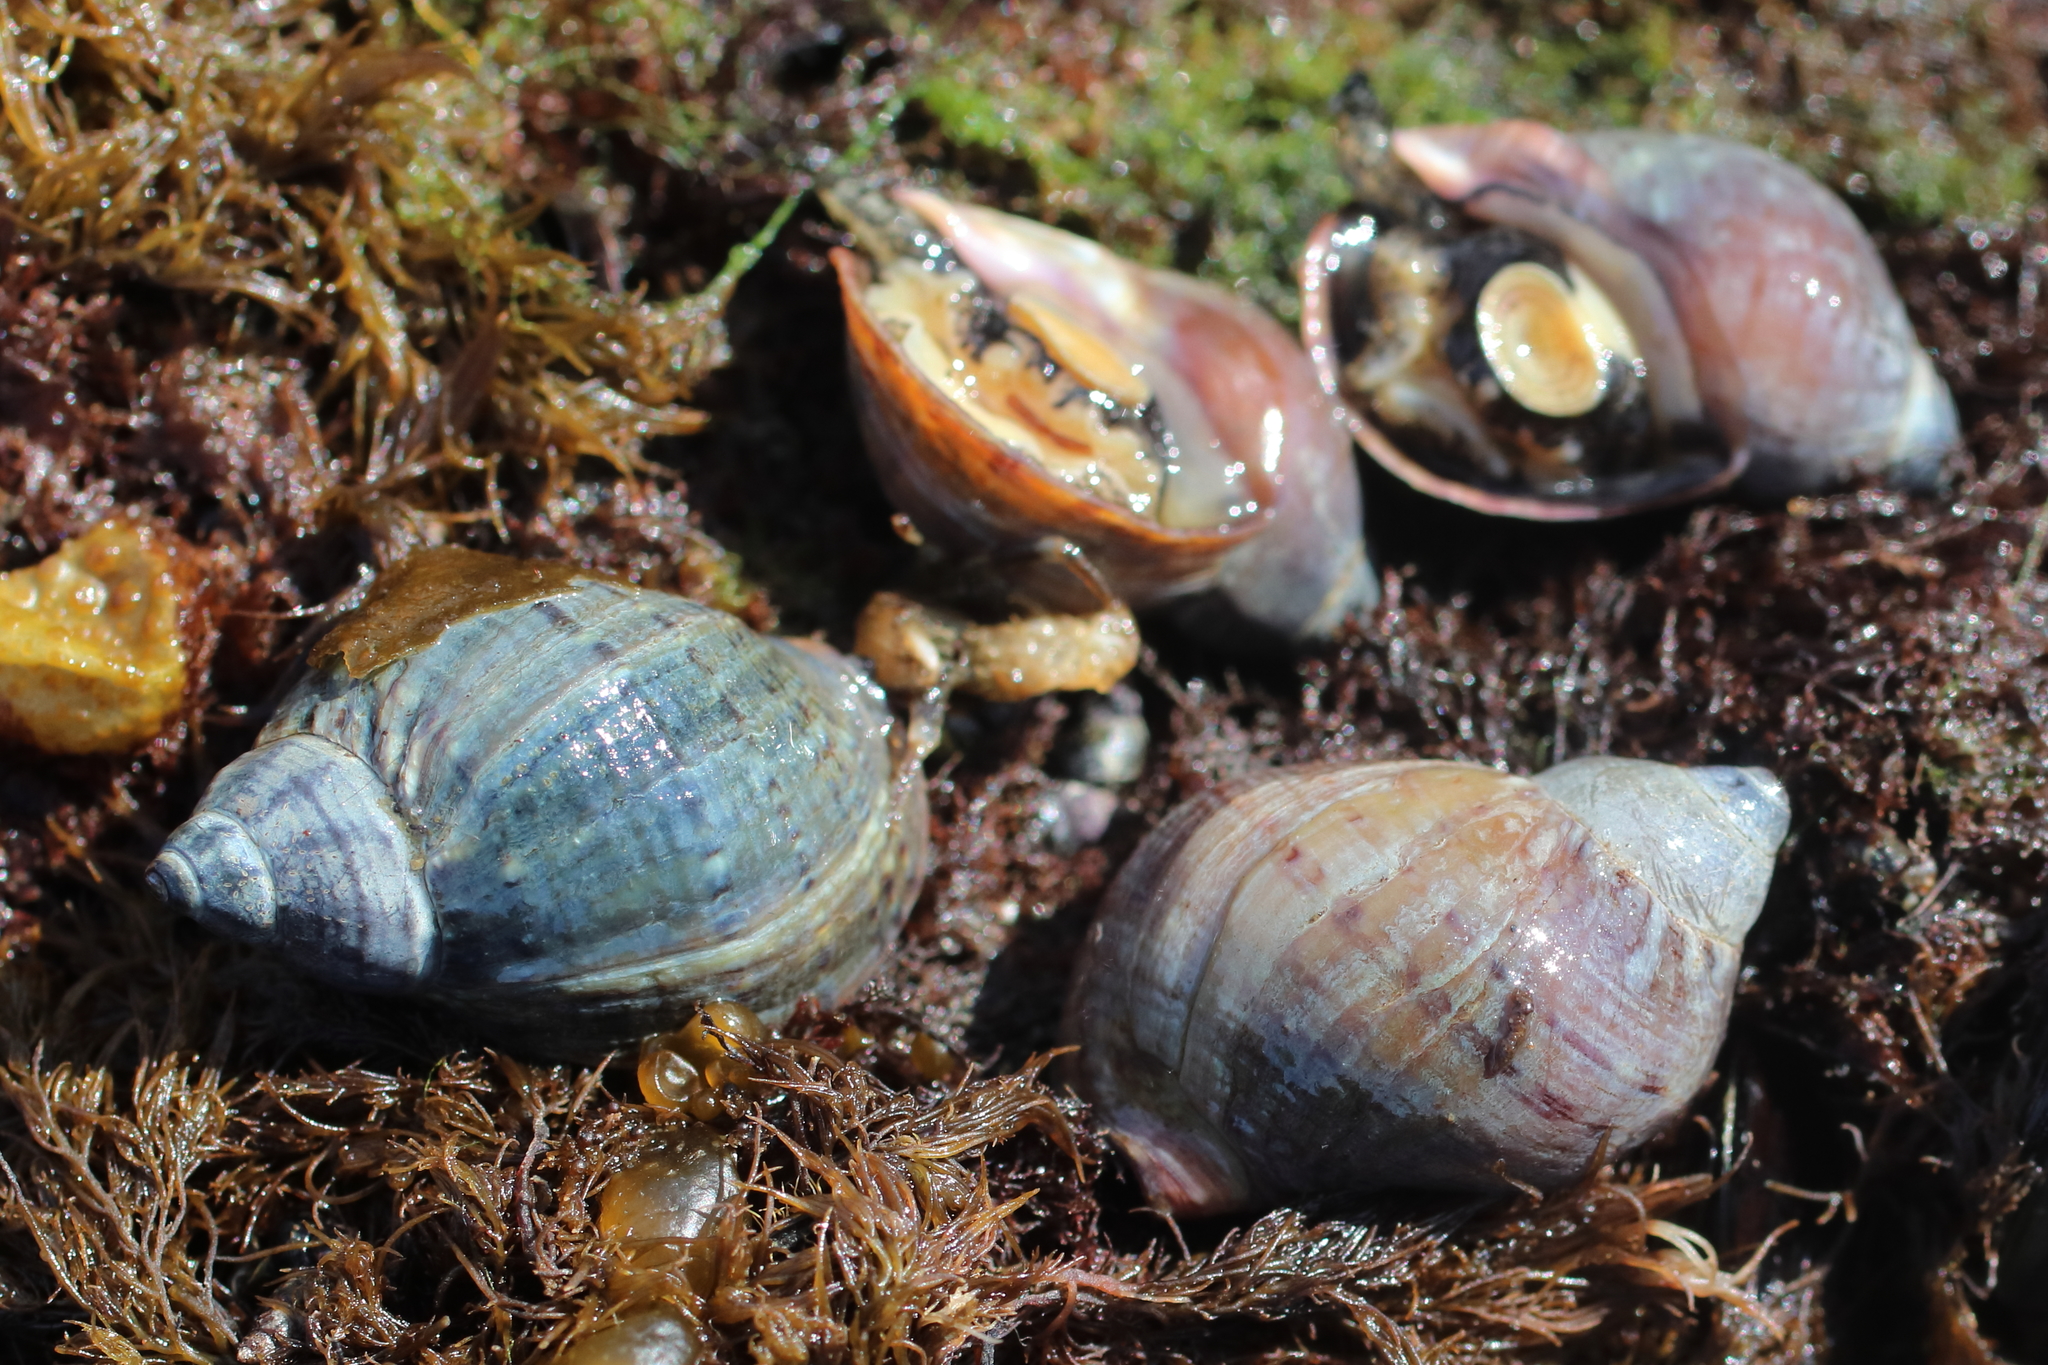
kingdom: Animalia
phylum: Mollusca
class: Gastropoda
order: Neogastropoda
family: Buccinidae
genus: Buccinum
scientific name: Buccinum baerii
